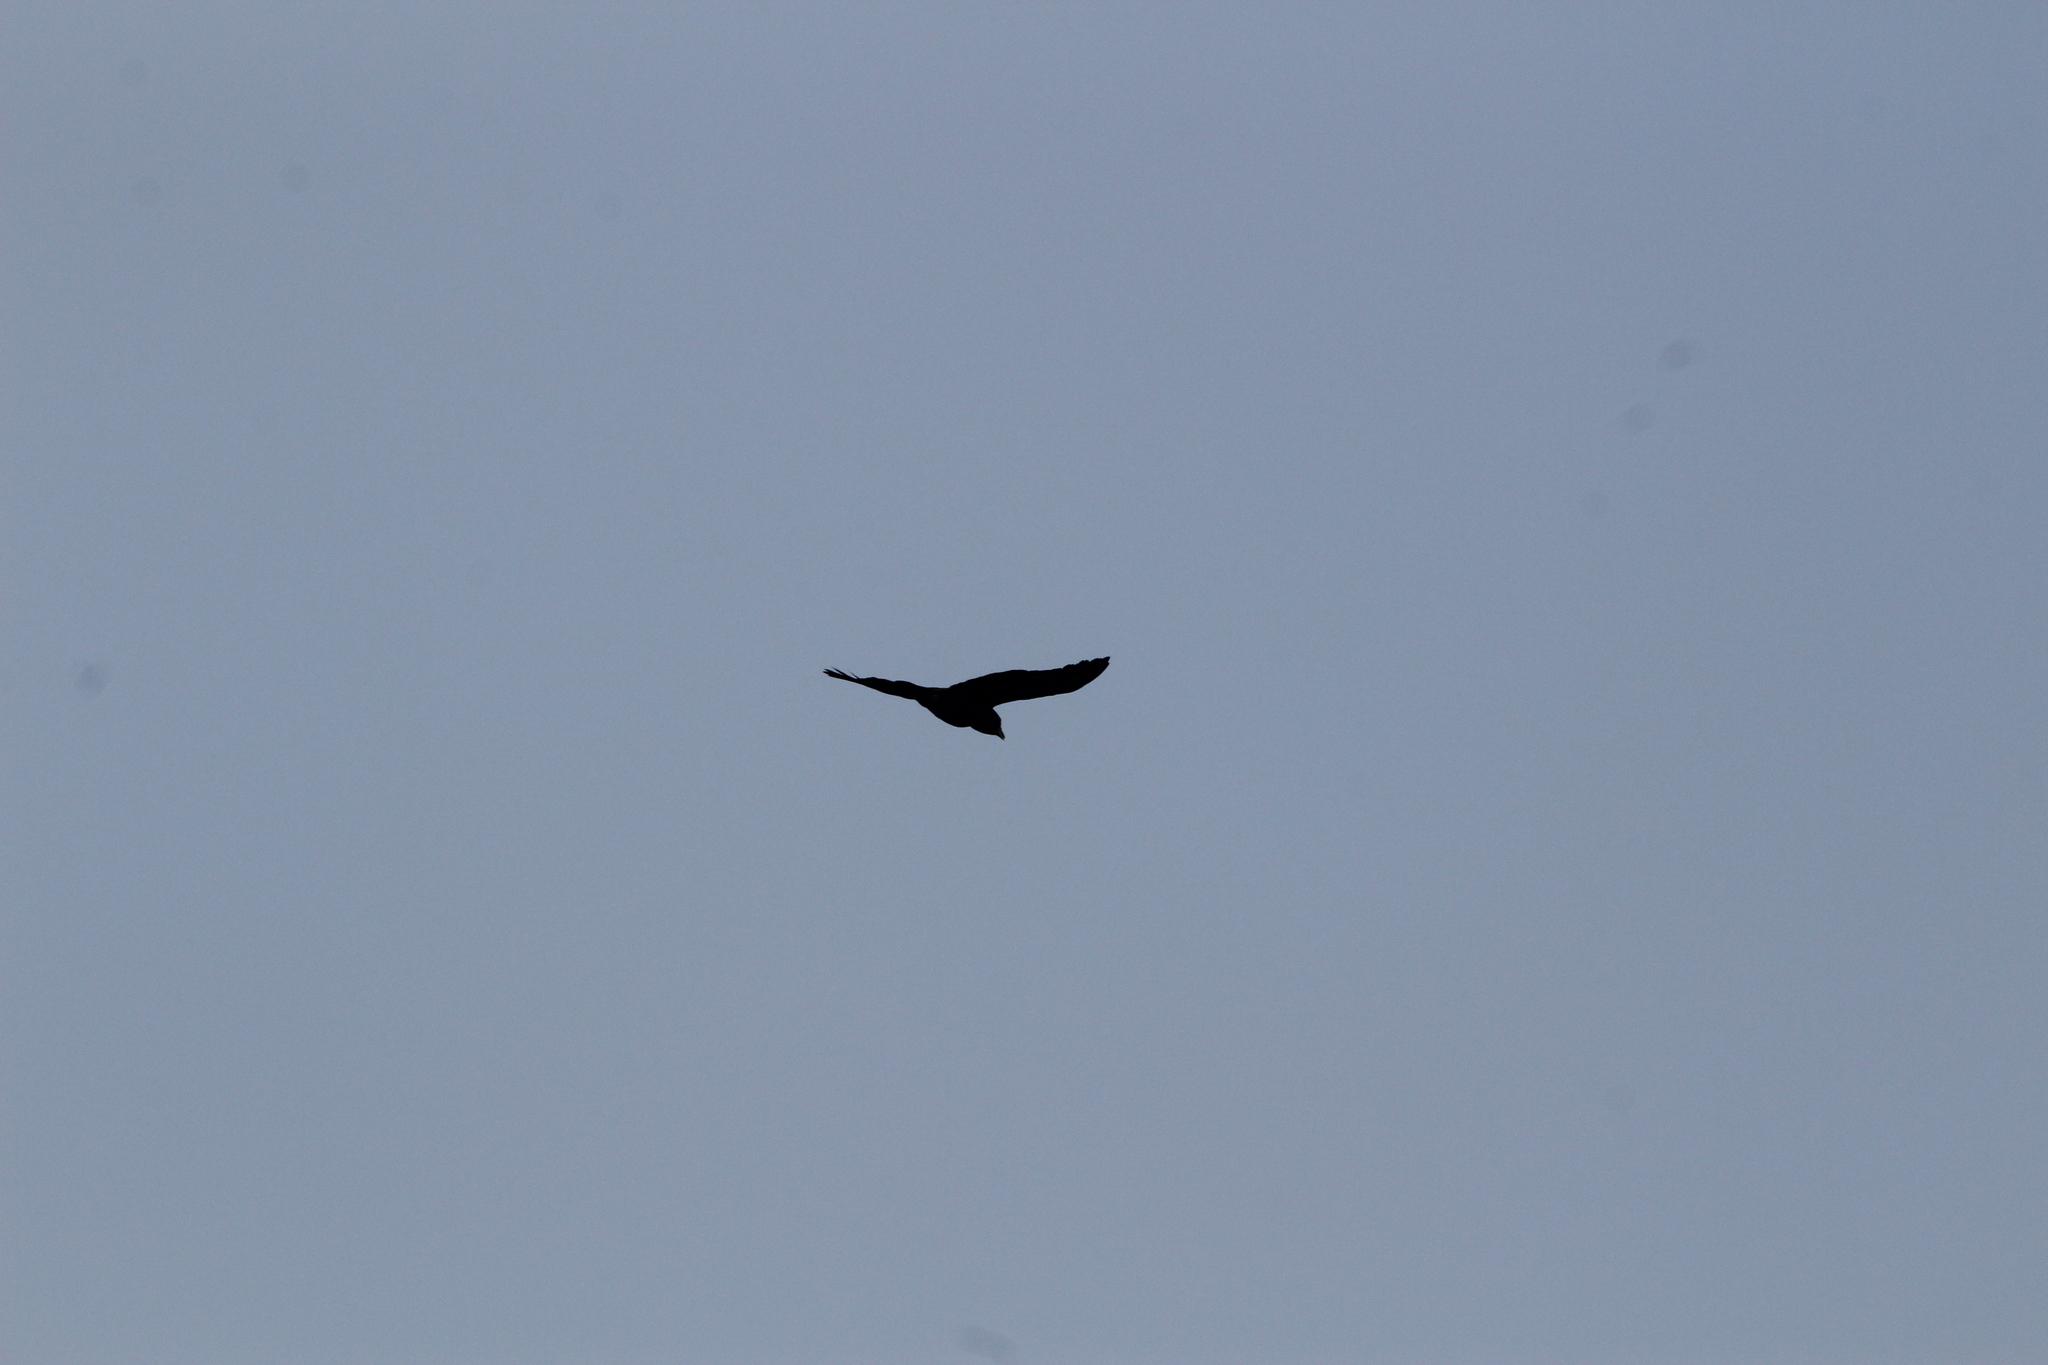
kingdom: Animalia
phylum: Chordata
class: Aves
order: Passeriformes
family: Corvidae
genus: Corvus
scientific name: Corvus brachyrhynchos
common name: American crow
